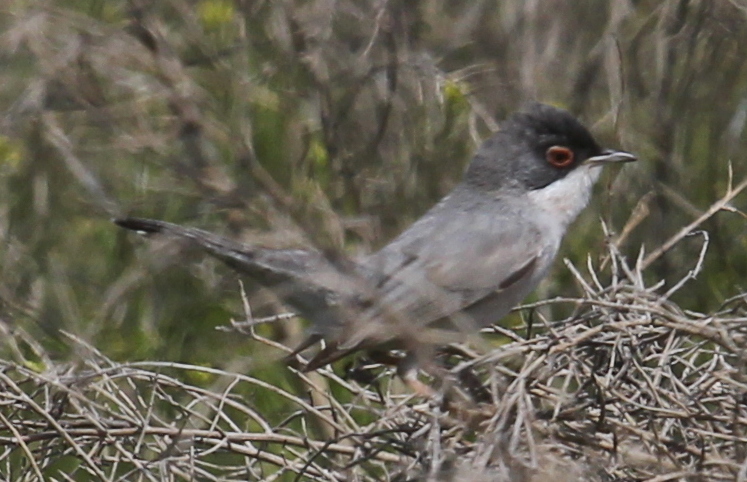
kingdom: Animalia
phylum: Chordata
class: Aves
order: Passeriformes
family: Sylviidae
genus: Sylvia
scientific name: Sylvia mystacea
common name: Menetries's warbler
